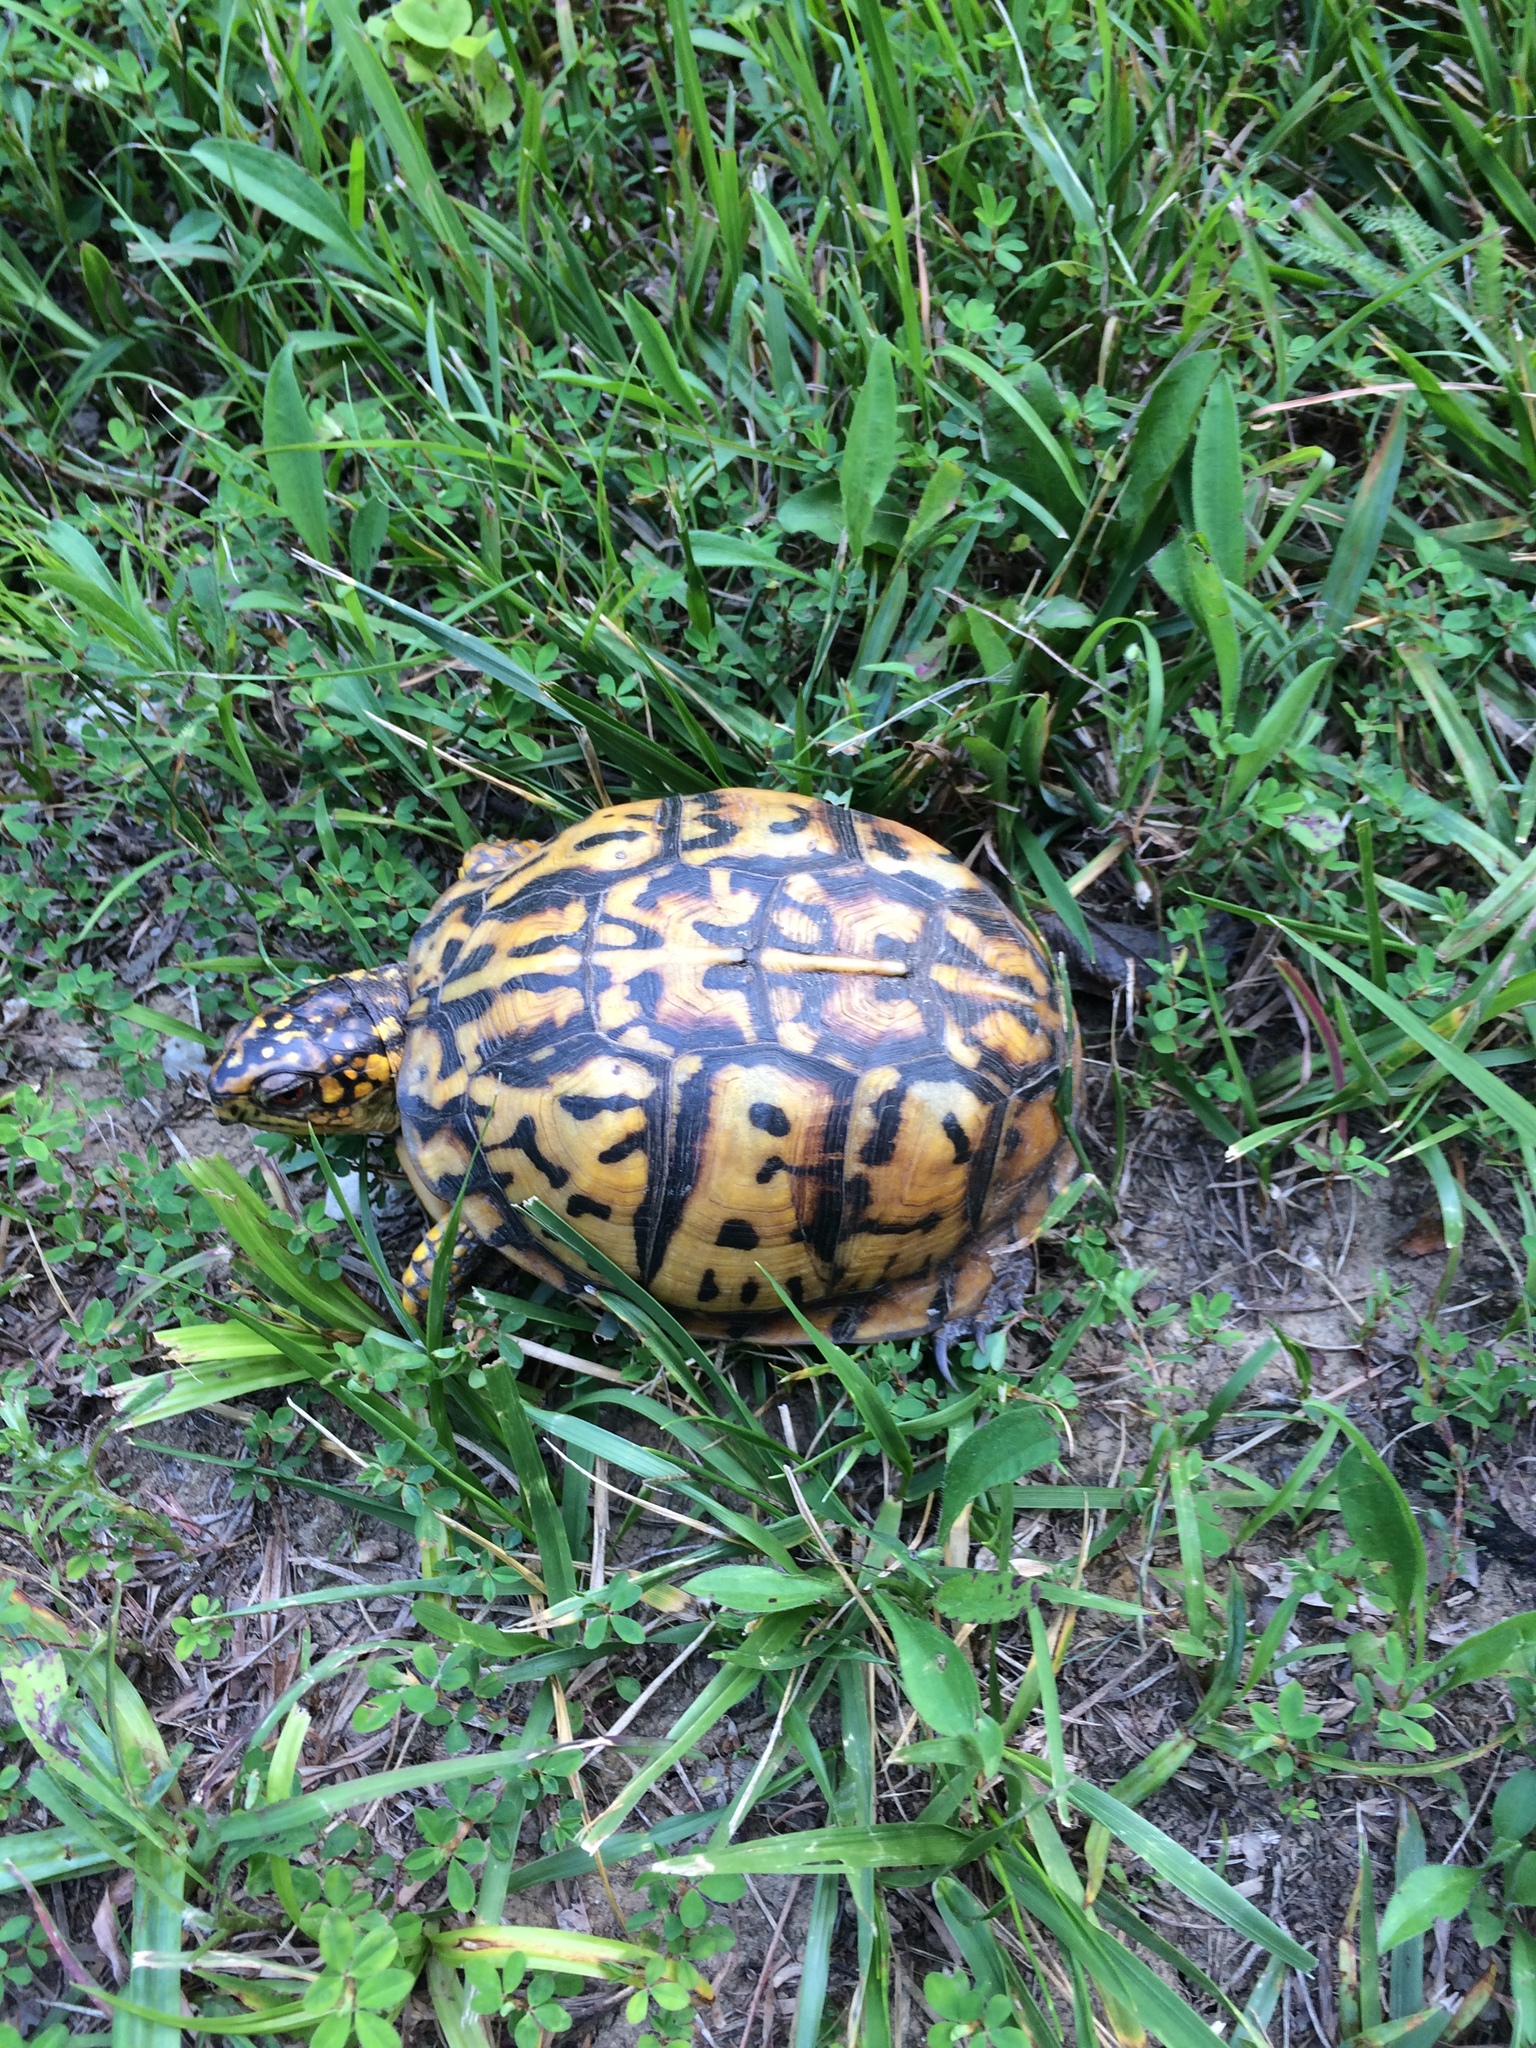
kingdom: Animalia
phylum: Chordata
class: Testudines
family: Emydidae
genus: Terrapene
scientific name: Terrapene carolina
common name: Common box turtle
